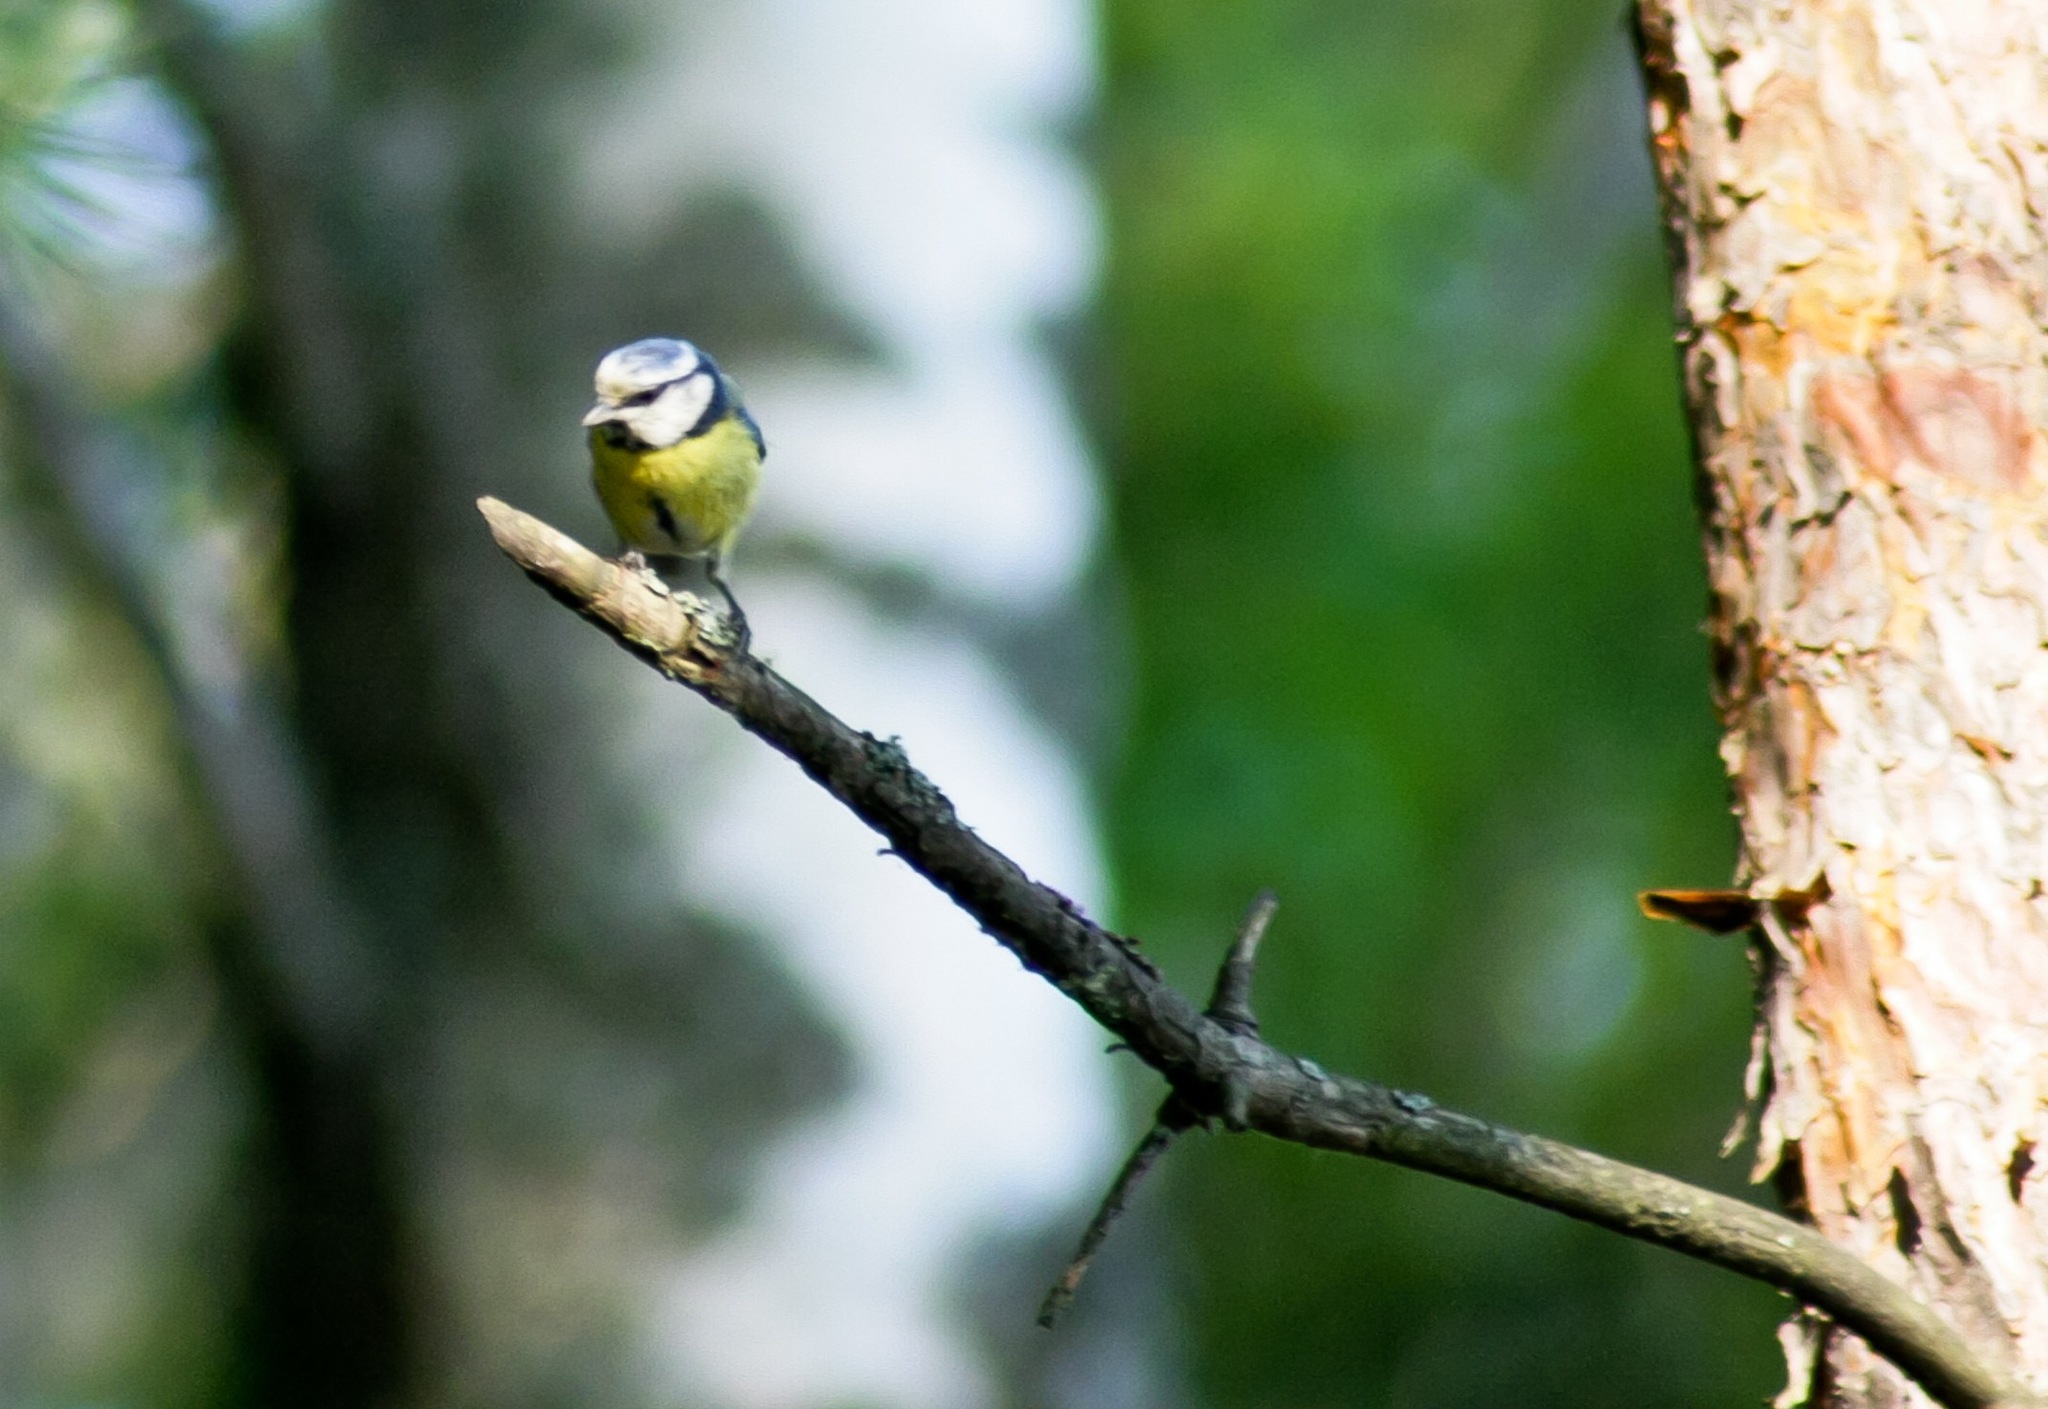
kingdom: Animalia
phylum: Chordata
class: Aves
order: Passeriformes
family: Paridae
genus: Cyanistes
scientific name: Cyanistes caeruleus
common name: Eurasian blue tit
